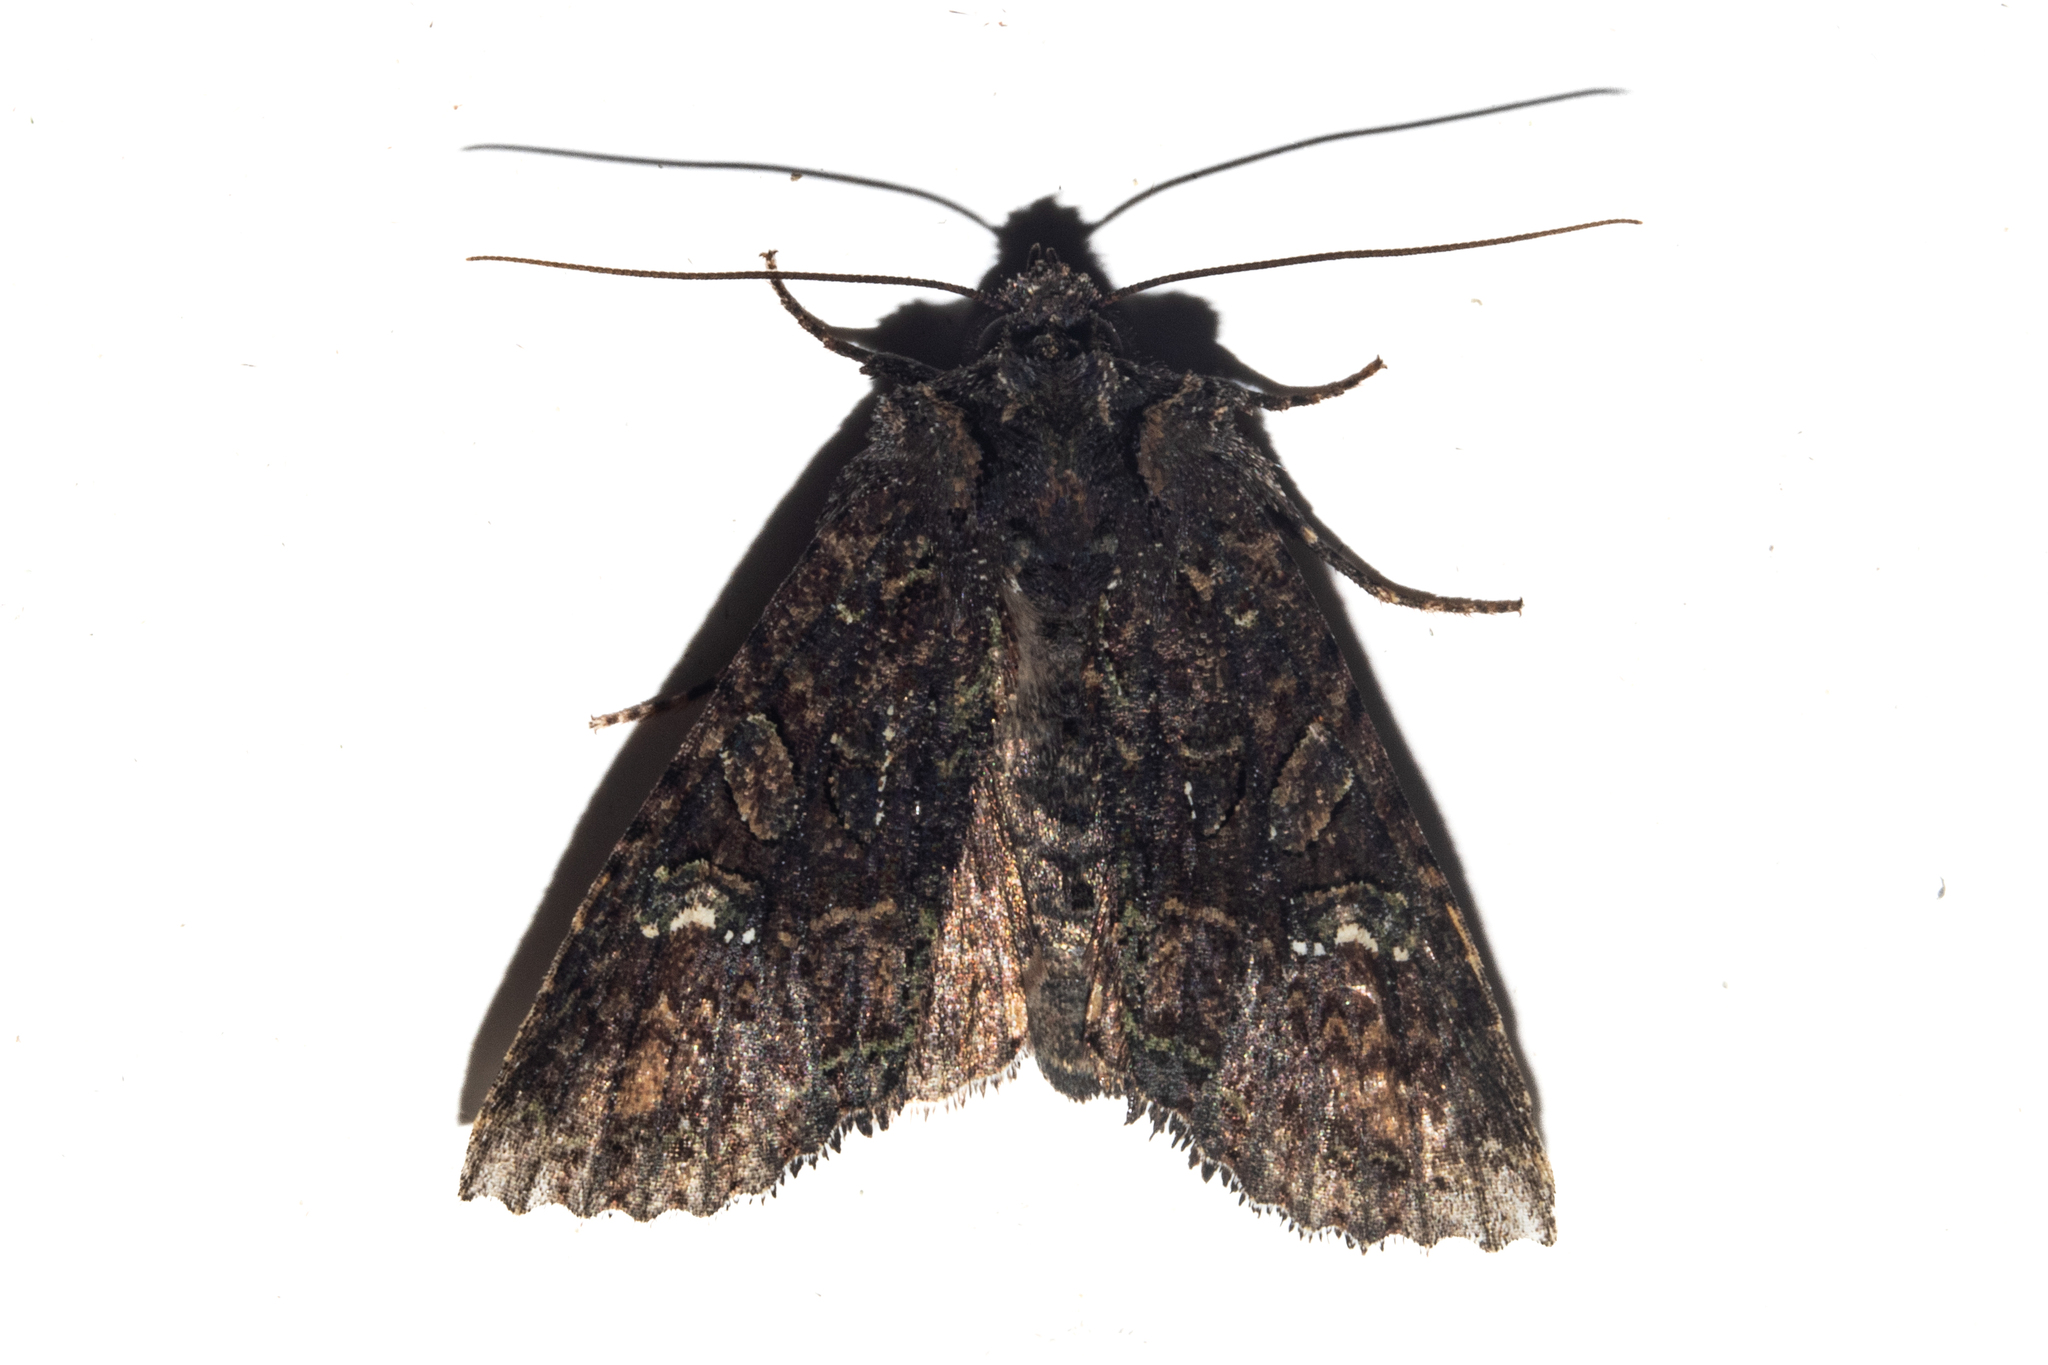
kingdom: Animalia
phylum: Arthropoda
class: Insecta
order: Lepidoptera
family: Noctuidae
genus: Meterana
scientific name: Meterana ochthistis
